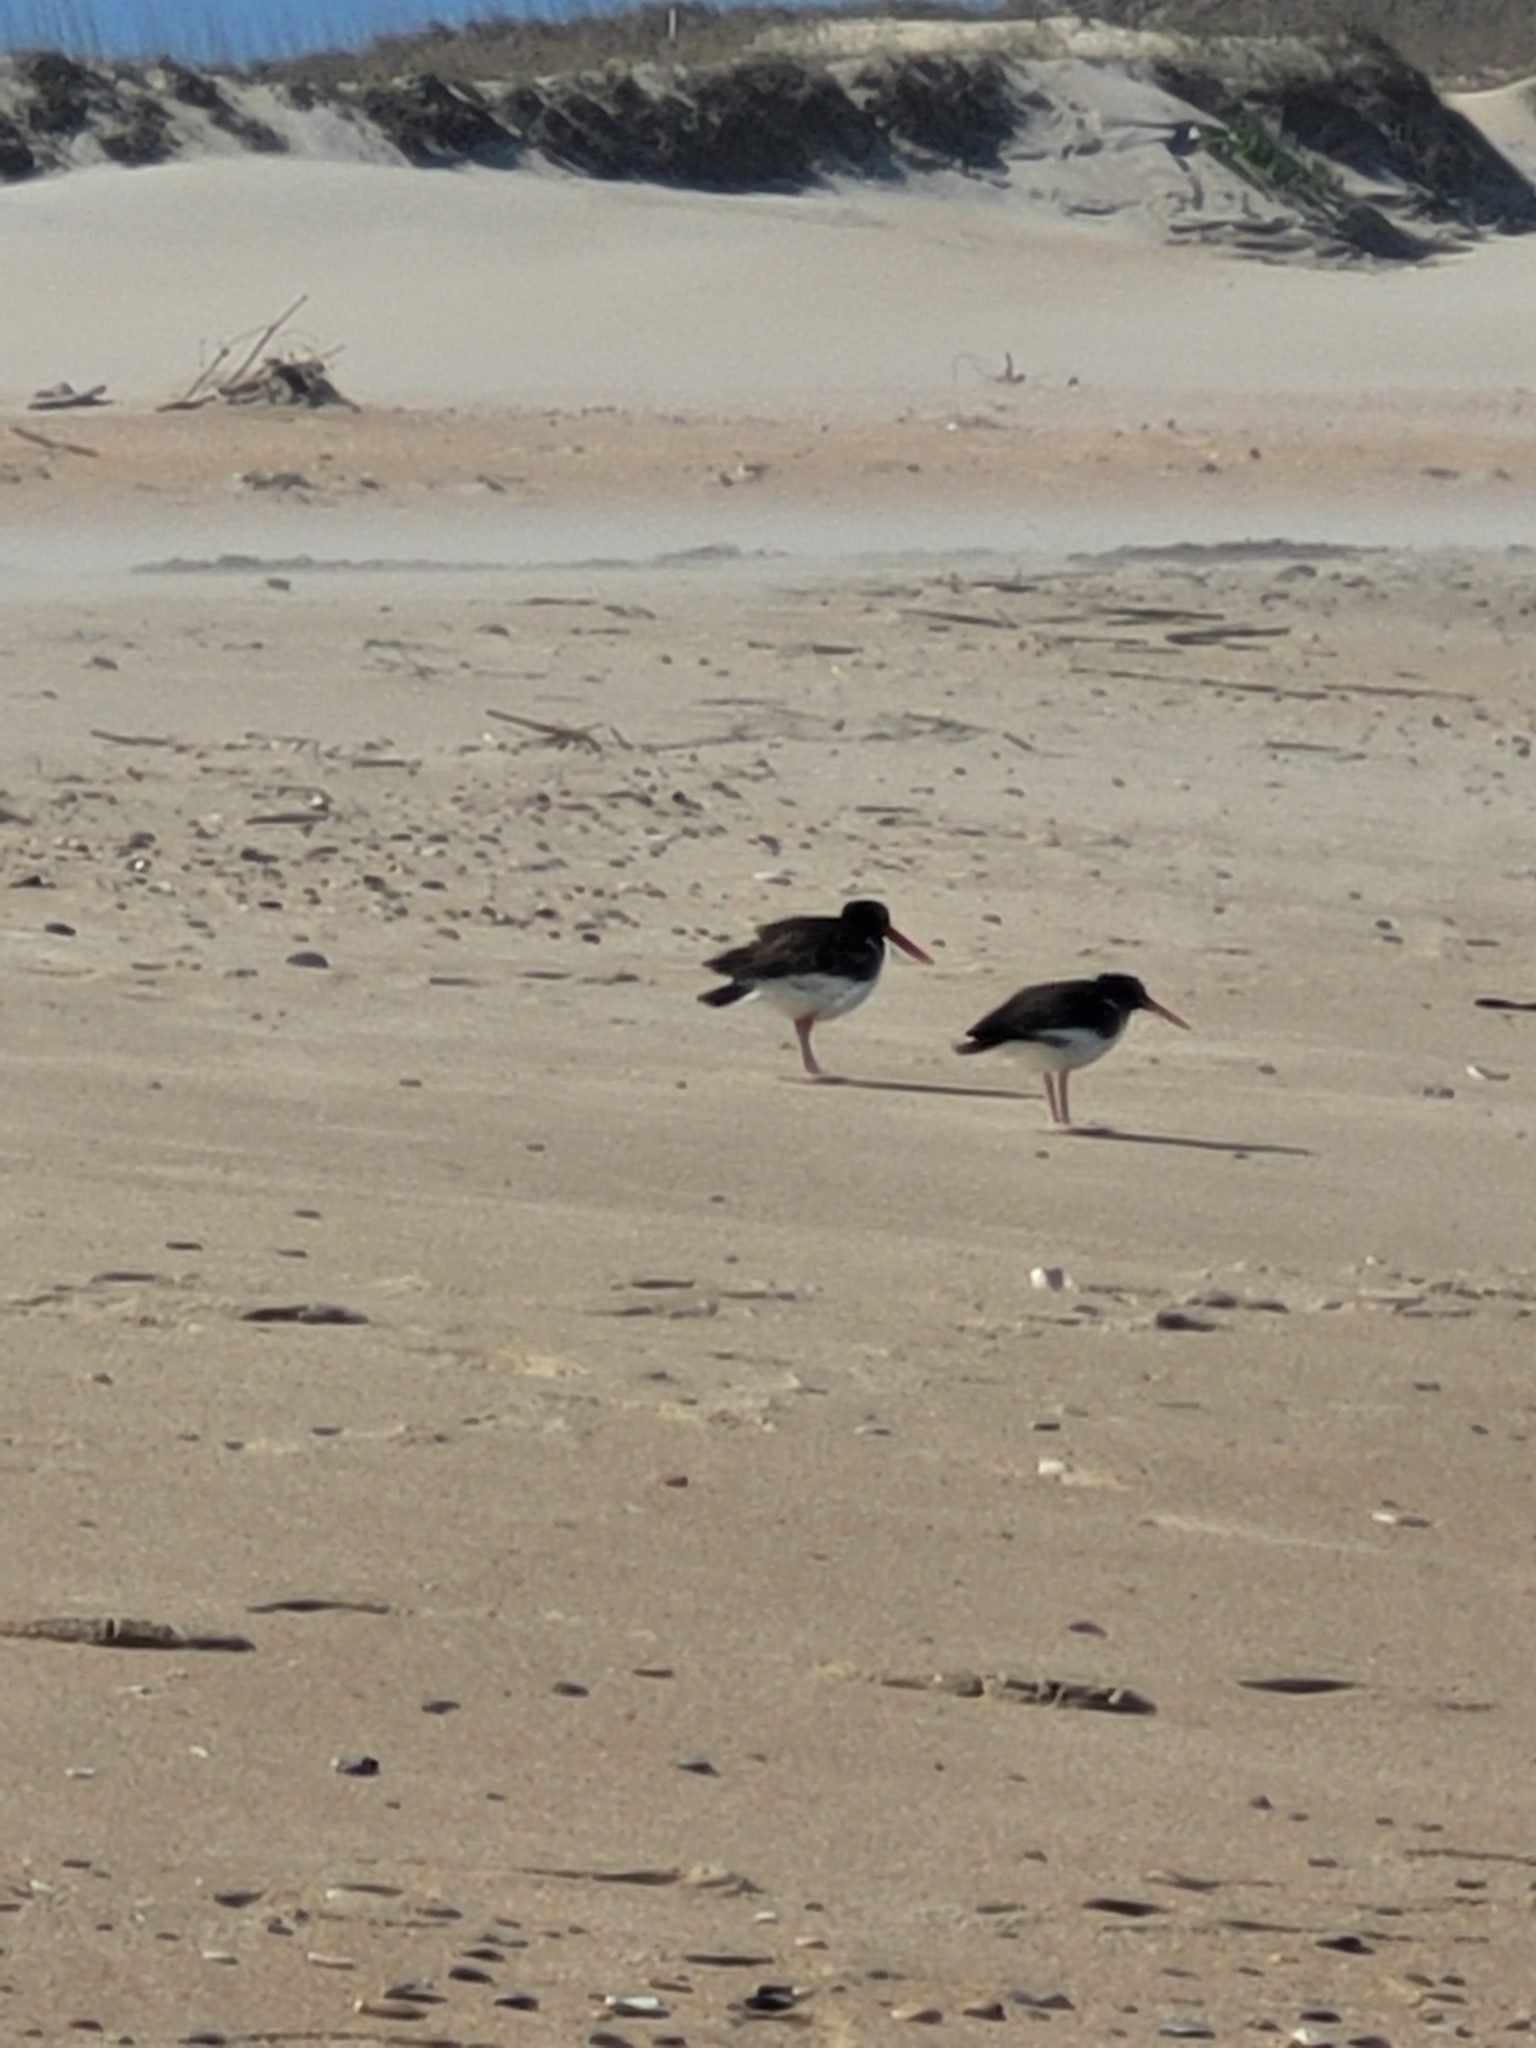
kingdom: Animalia
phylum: Chordata
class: Aves
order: Charadriiformes
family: Haematopodidae
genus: Haematopus
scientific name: Haematopus palliatus
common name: American oystercatcher
